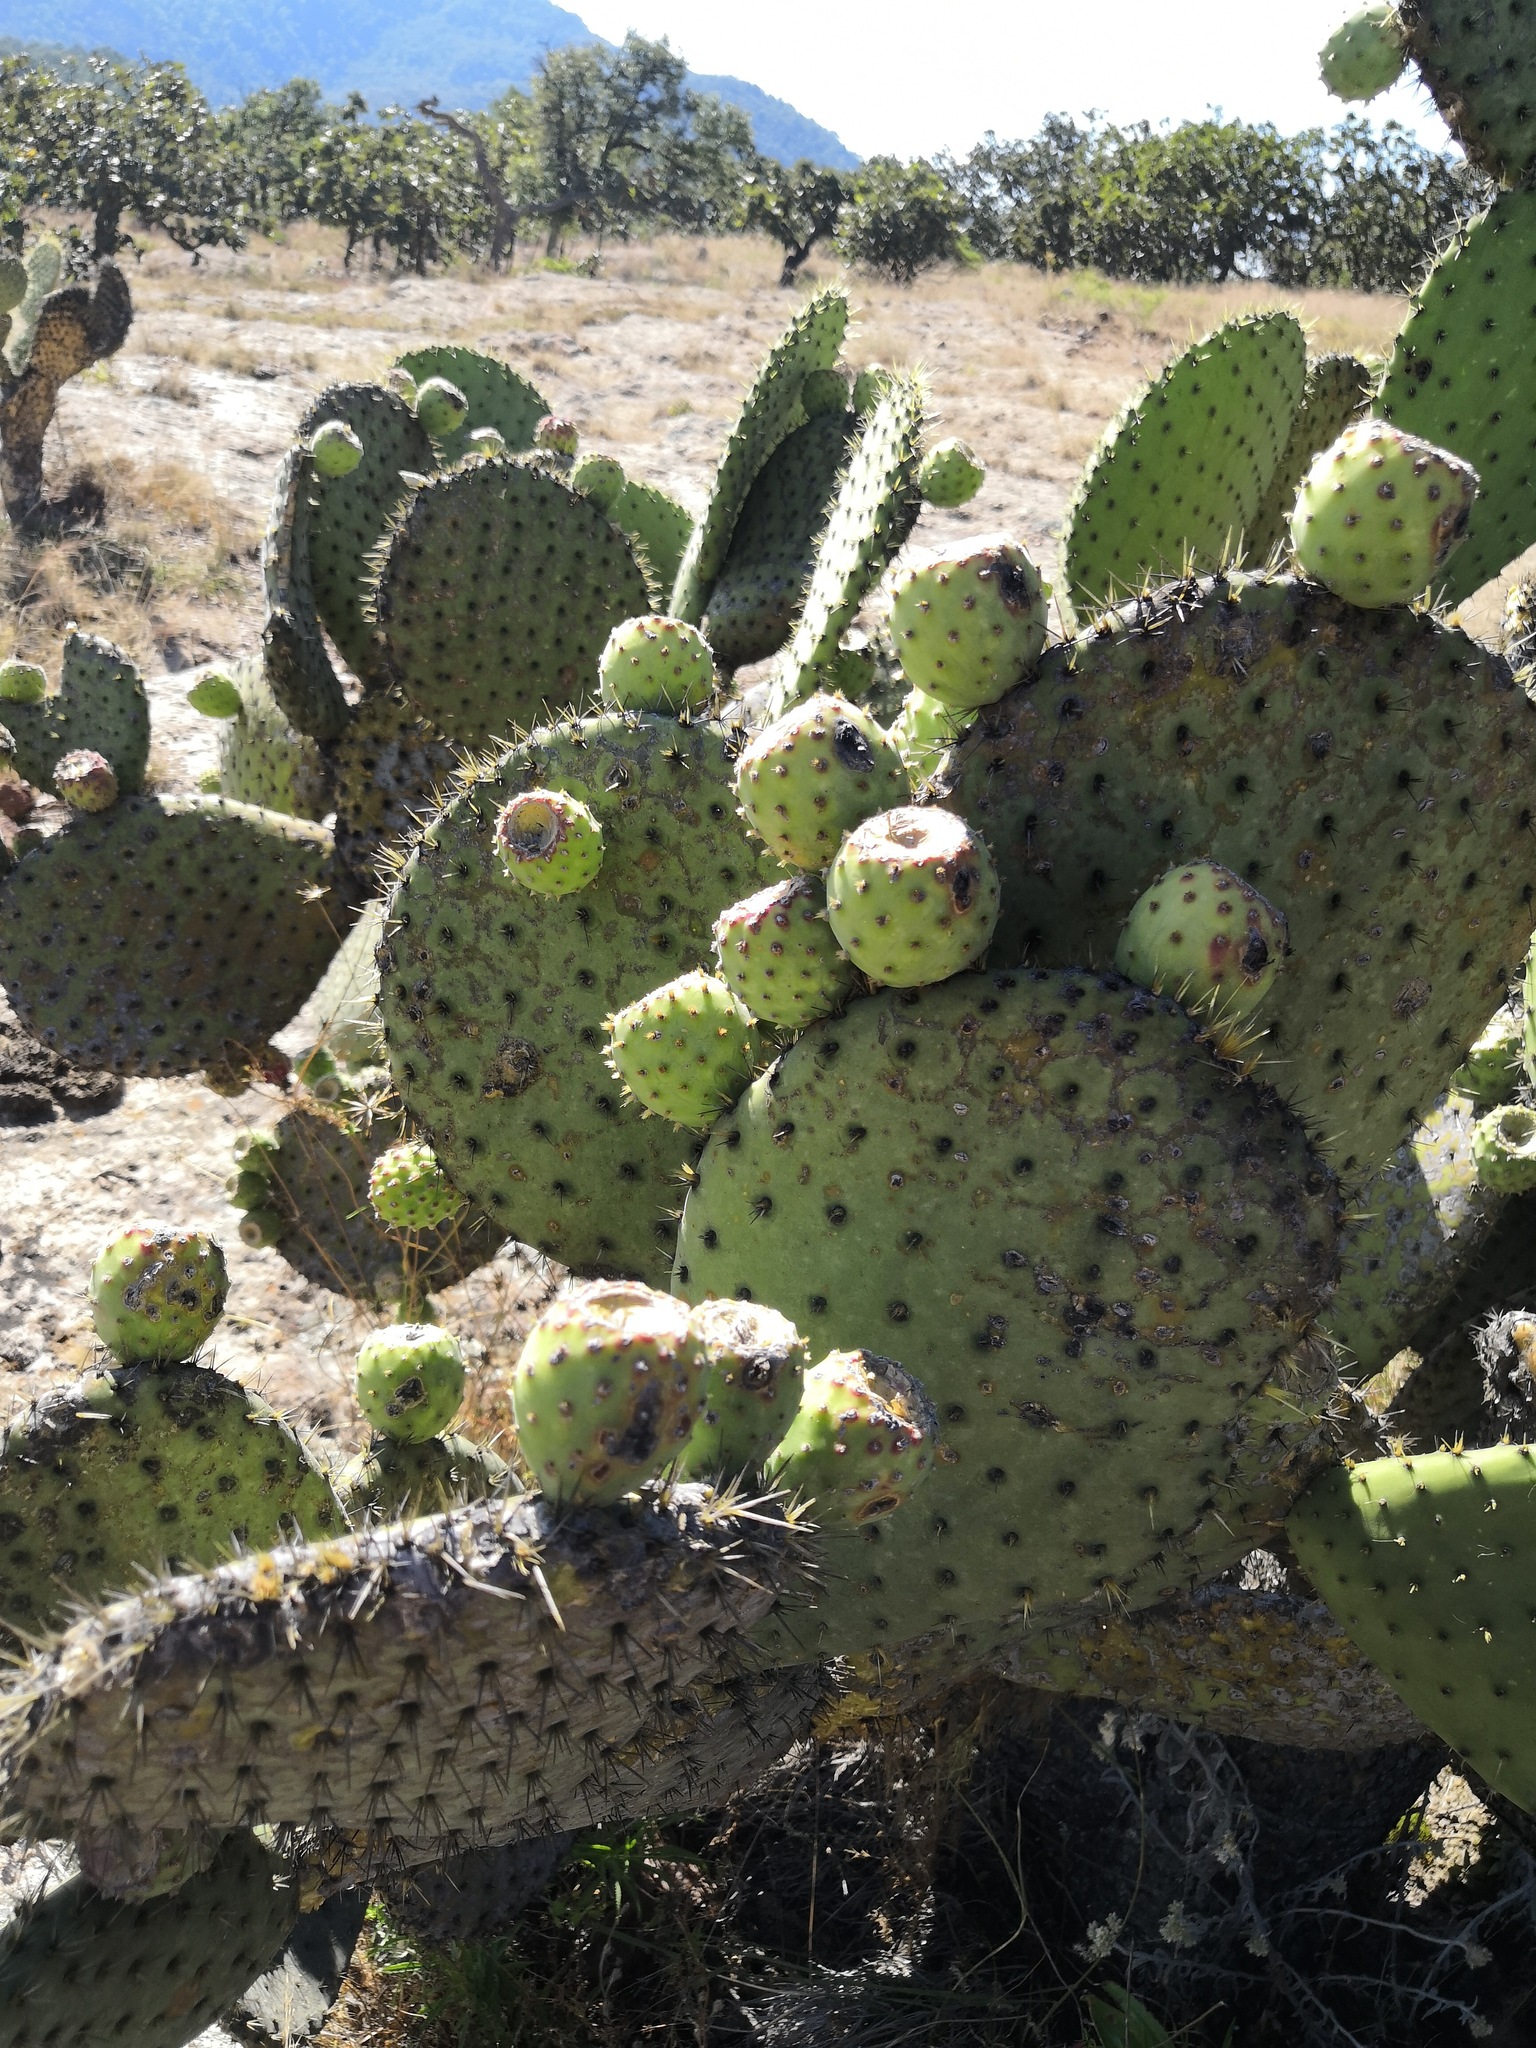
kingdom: Plantae
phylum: Tracheophyta
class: Magnoliopsida
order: Caryophyllales
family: Cactaceae
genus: Opuntia
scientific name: Opuntia streptacantha
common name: Gracemere-pear
